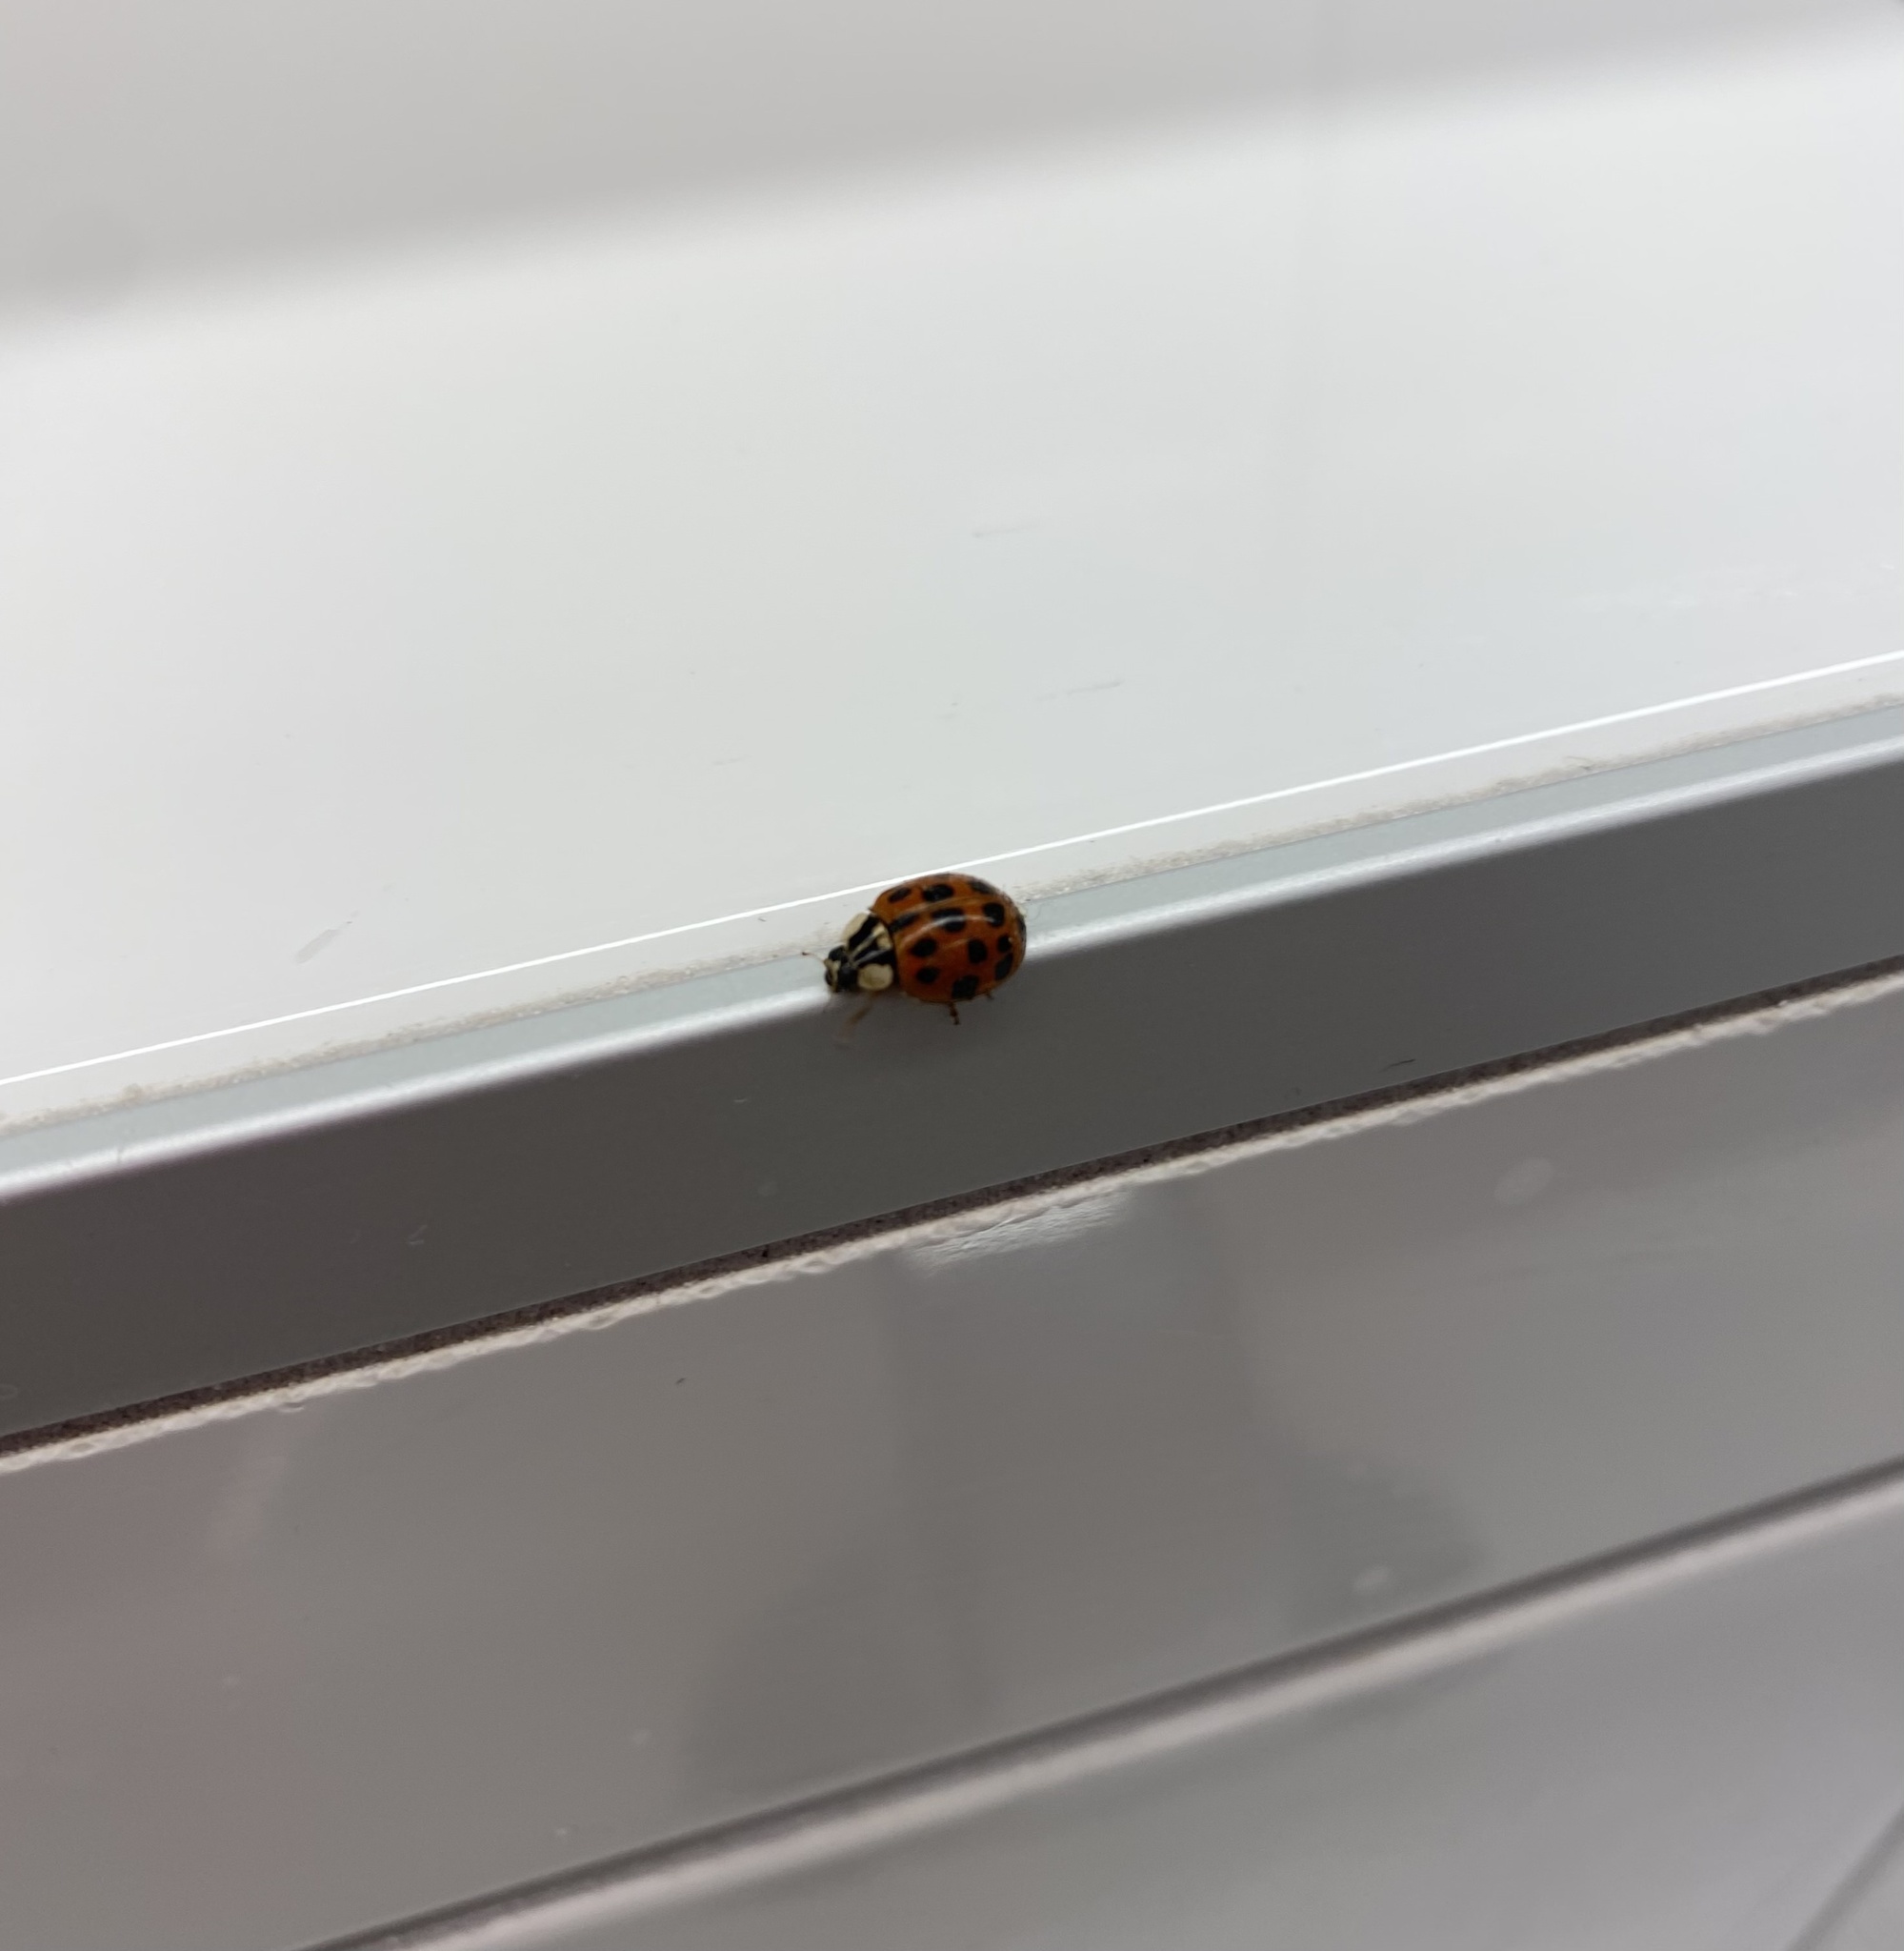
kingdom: Animalia
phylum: Arthropoda
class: Insecta
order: Coleoptera
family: Coccinellidae
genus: Harmonia
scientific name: Harmonia axyridis
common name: Harlequin ladybird
